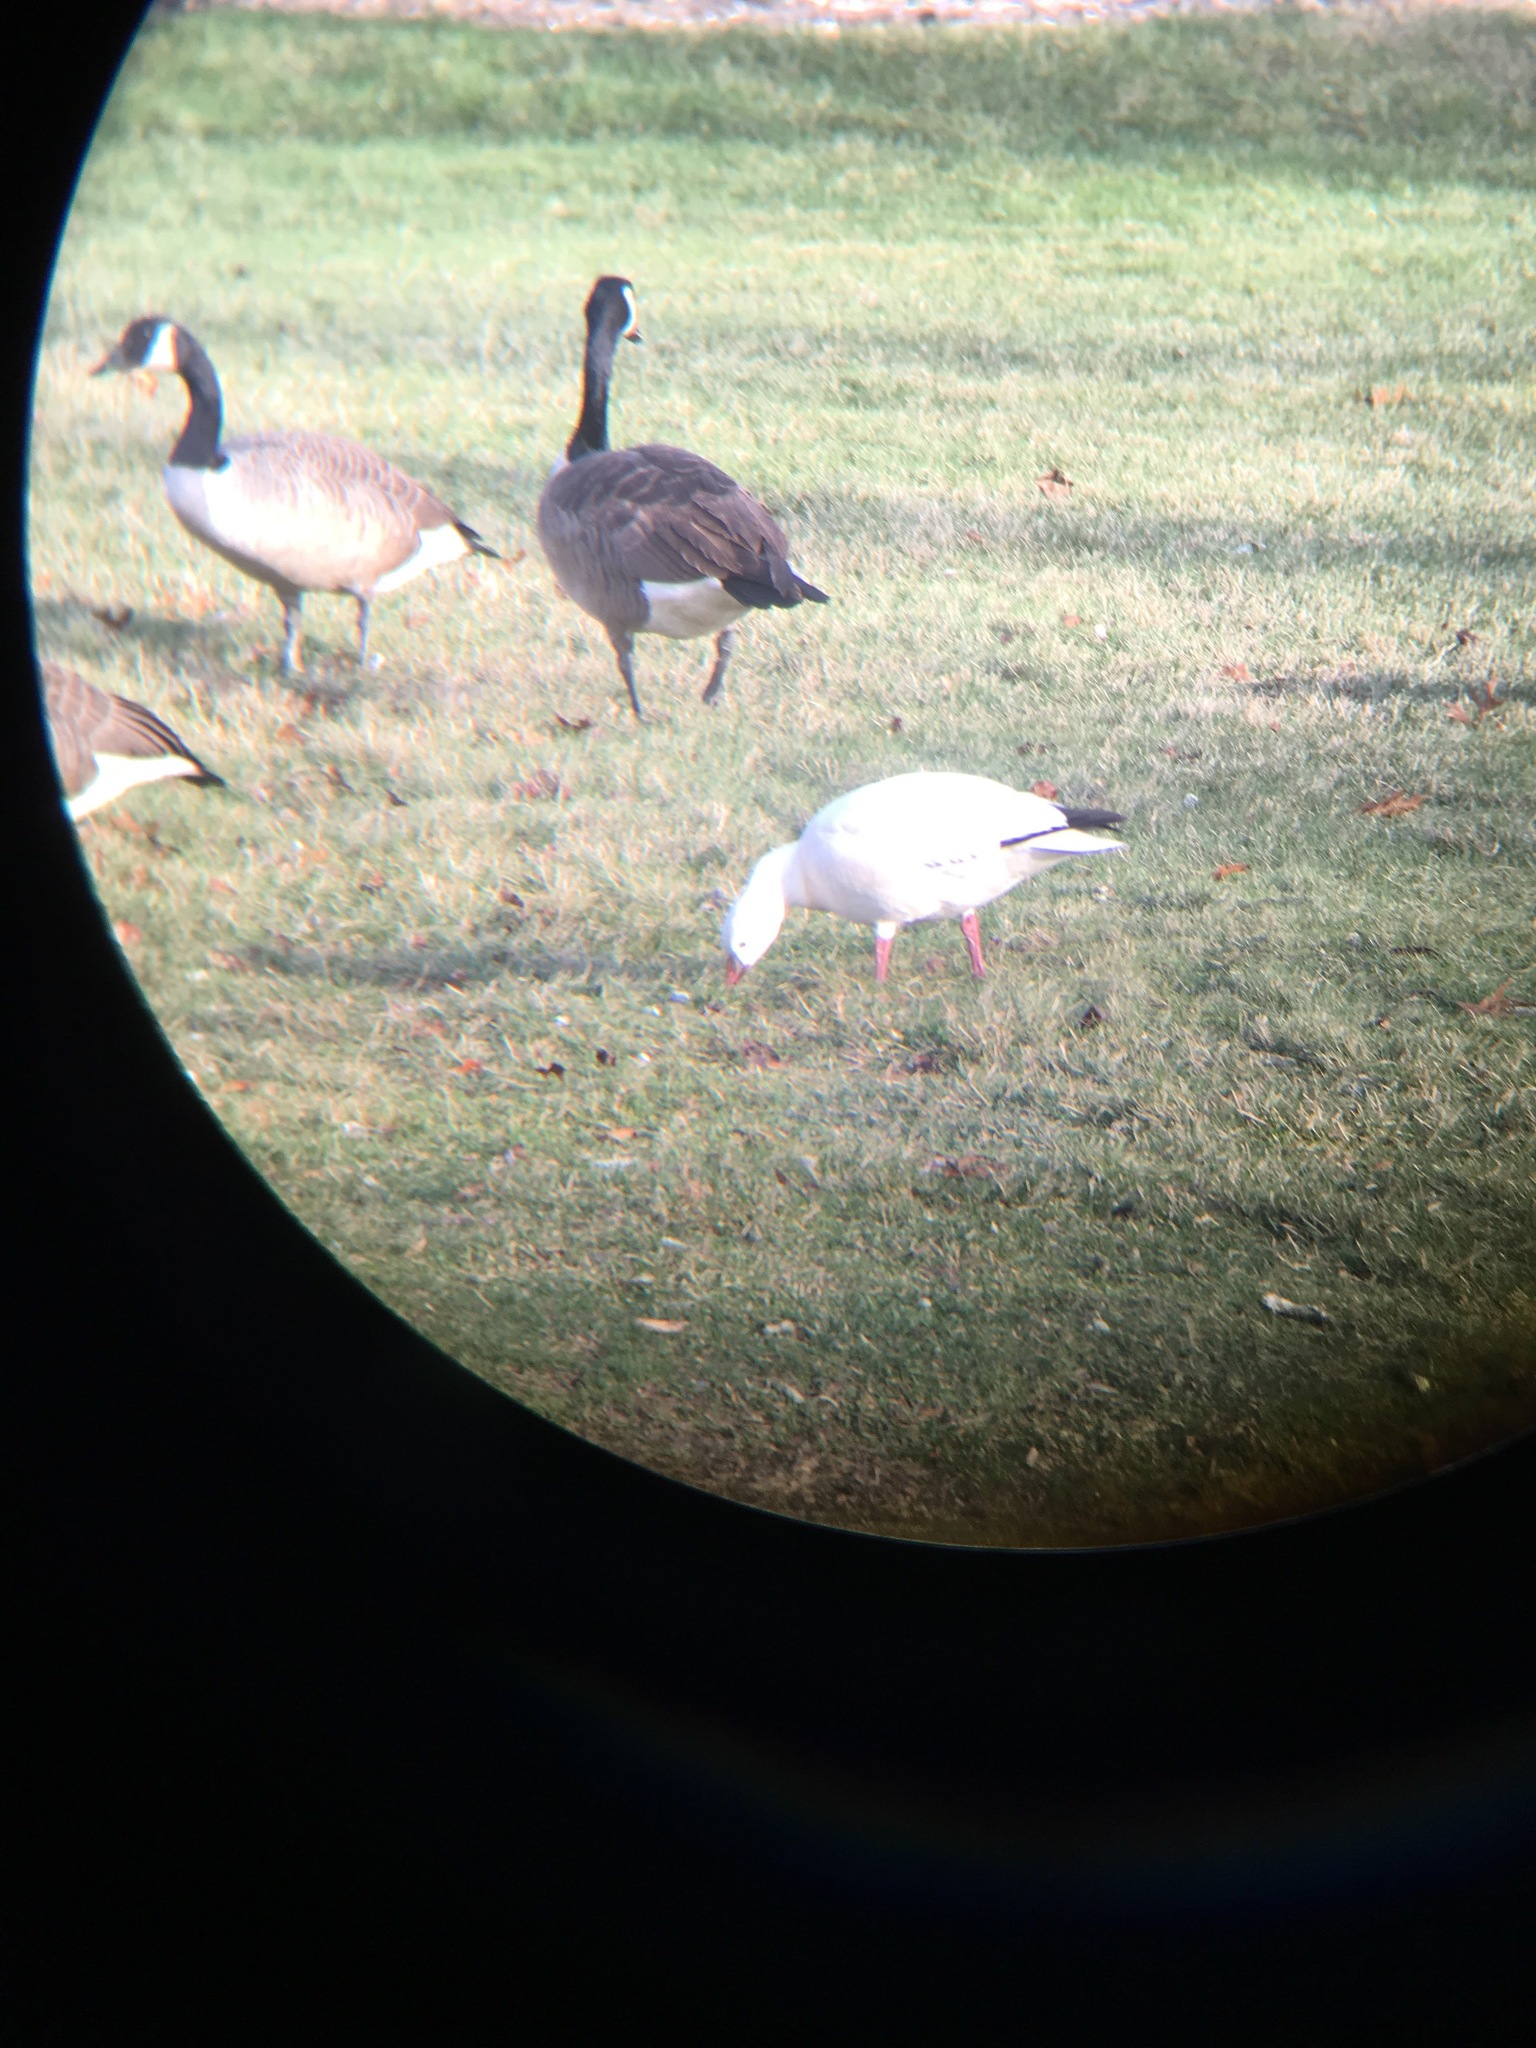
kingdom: Animalia
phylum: Chordata
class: Aves
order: Anseriformes
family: Anatidae
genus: Anser
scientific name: Anser rossii
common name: Ross's goose
